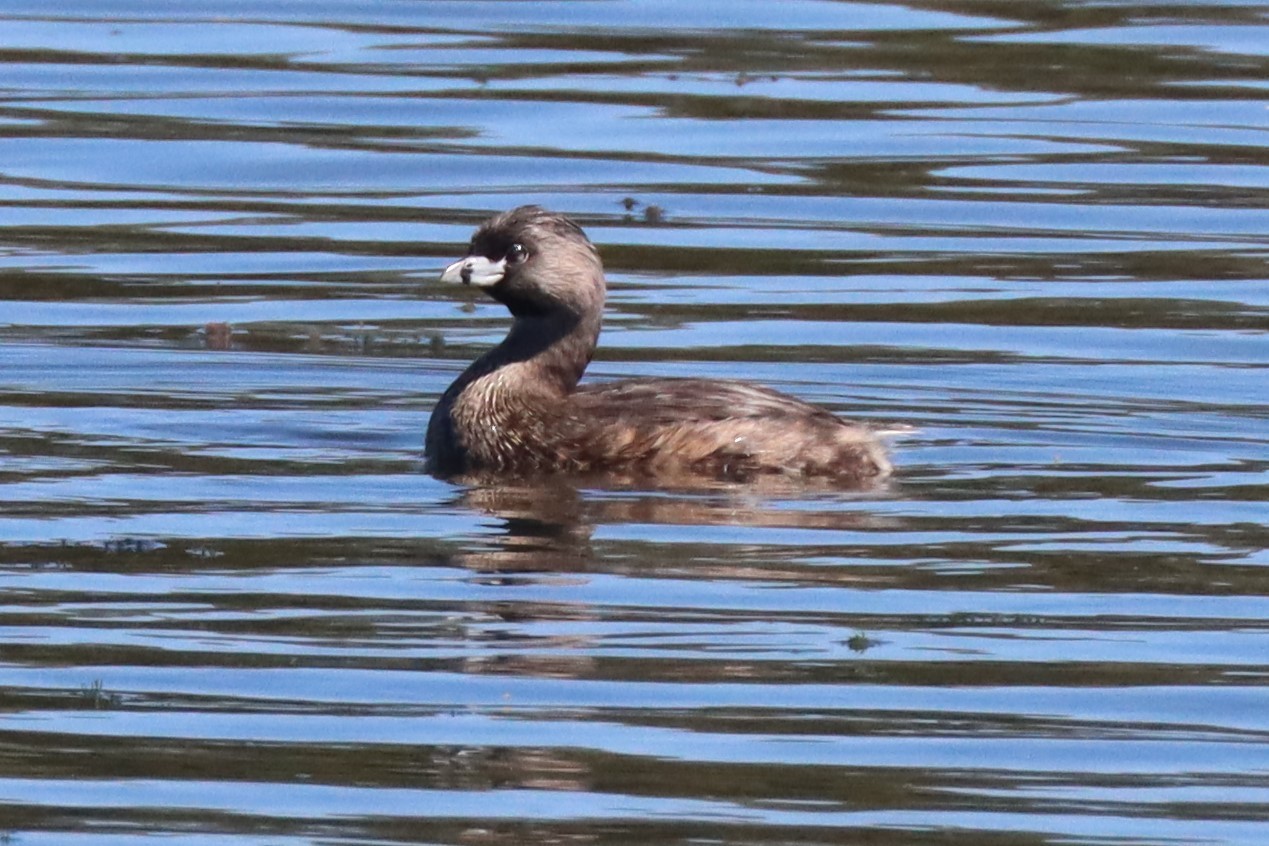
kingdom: Animalia
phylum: Chordata
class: Aves
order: Podicipediformes
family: Podicipedidae
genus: Podilymbus
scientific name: Podilymbus podiceps
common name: Pied-billed grebe
